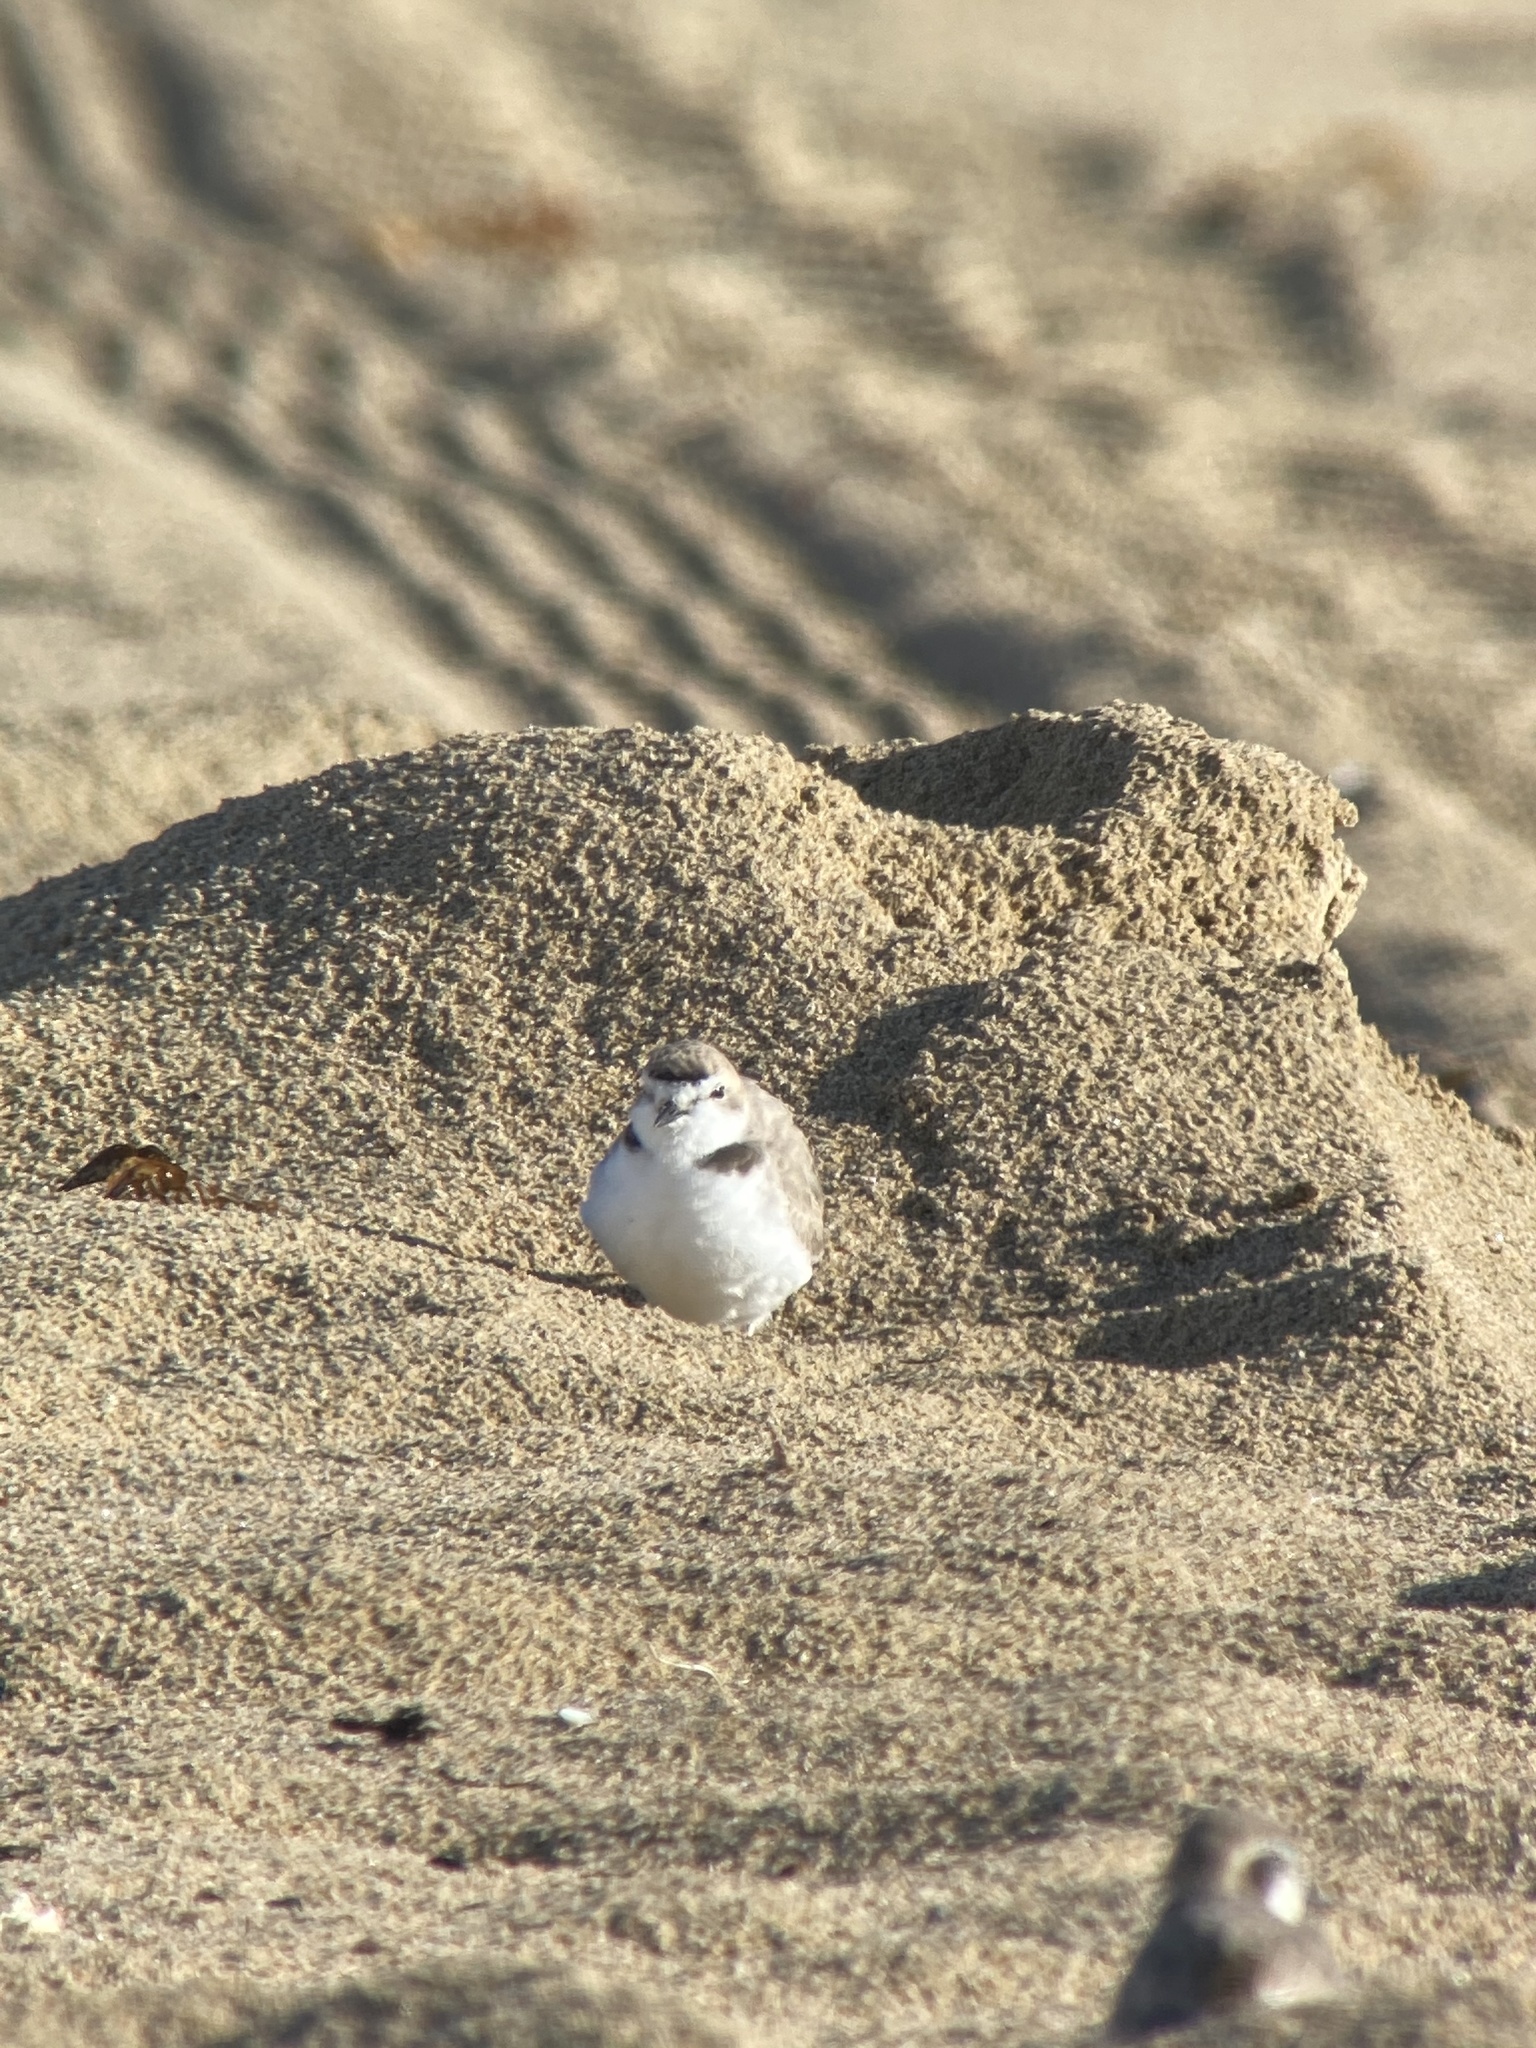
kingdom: Animalia
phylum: Chordata
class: Aves
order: Charadriiformes
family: Charadriidae
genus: Anarhynchus
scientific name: Anarhynchus
